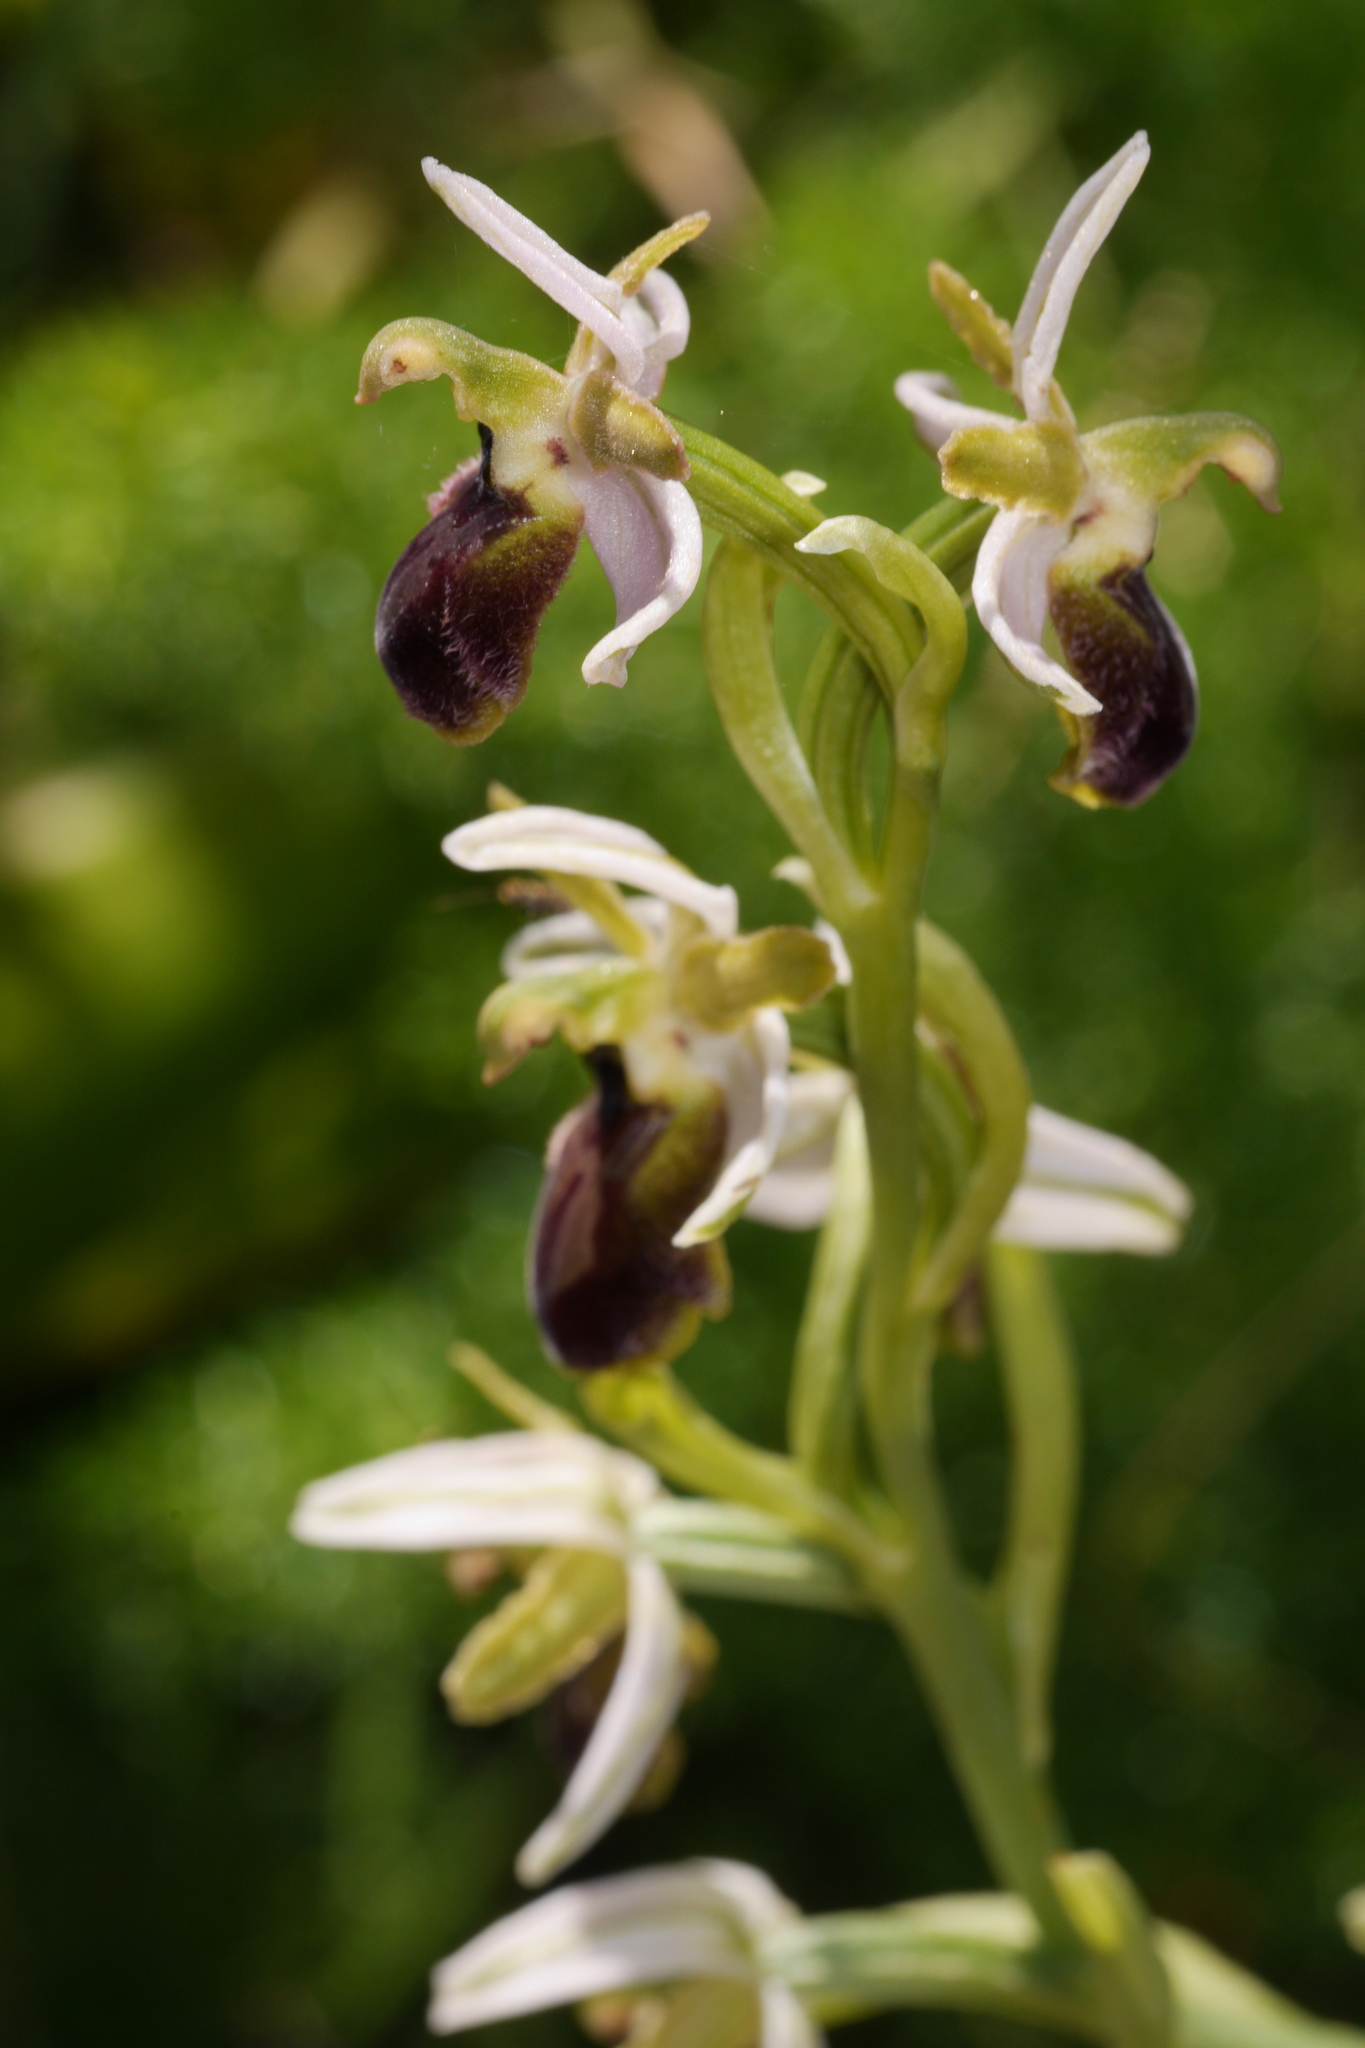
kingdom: Plantae
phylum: Tracheophyta
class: Liliopsida
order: Asparagales
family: Orchidaceae
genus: Ophrys
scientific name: Ophrys sphegodes
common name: Early spider-orchid
